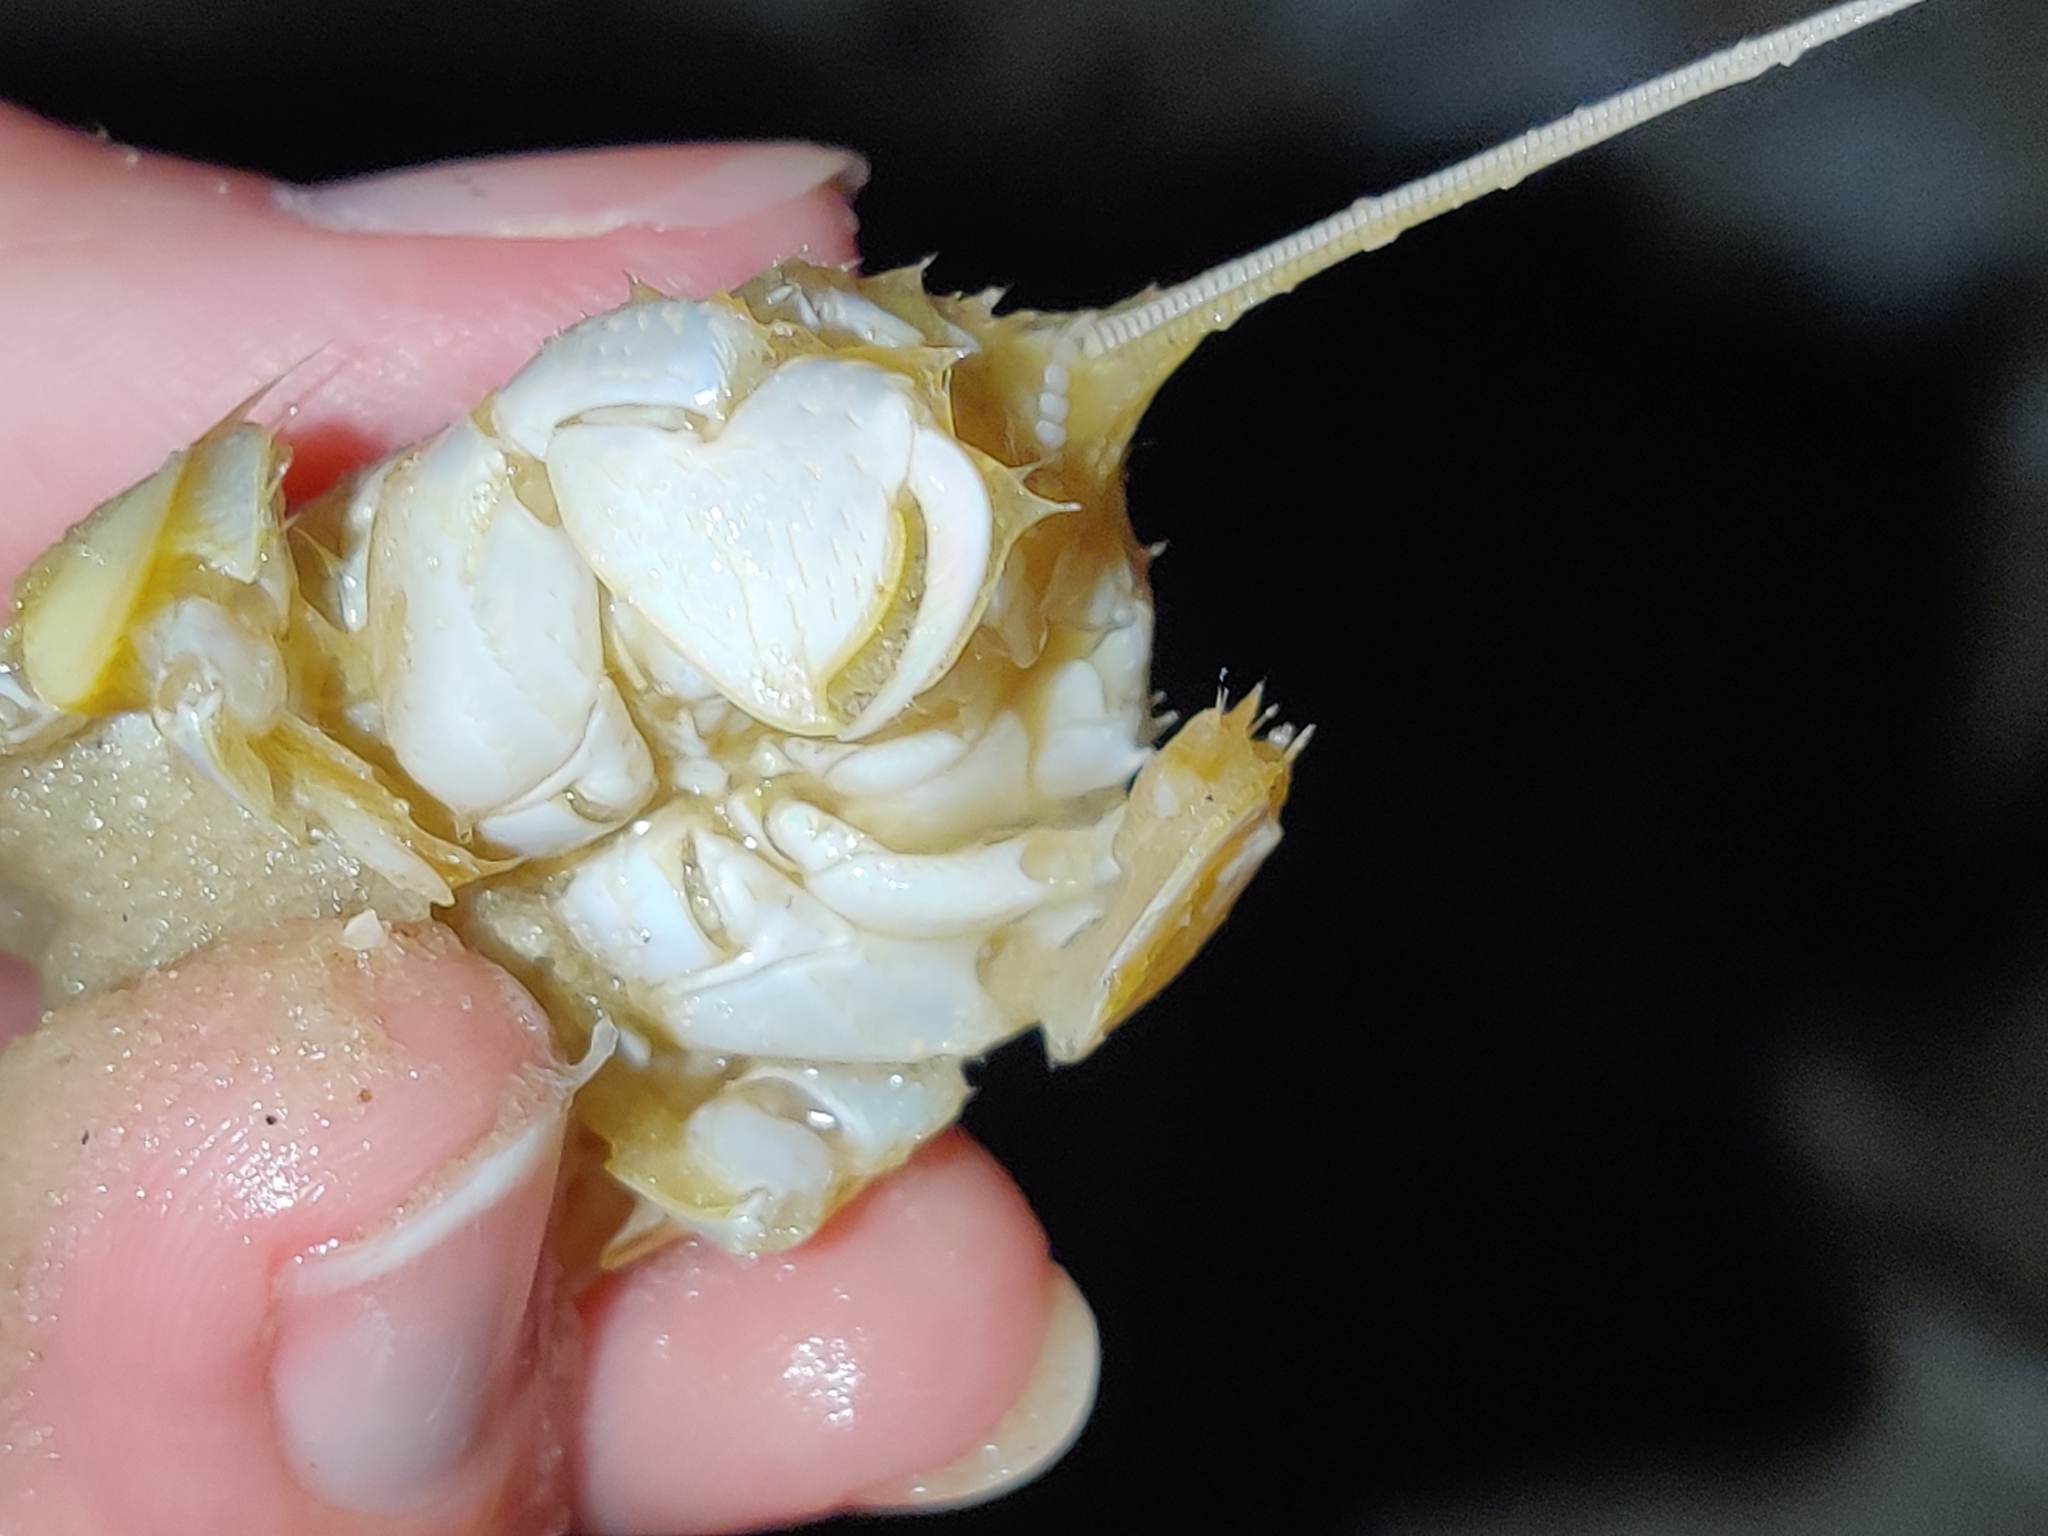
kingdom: Animalia
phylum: Arthropoda
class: Malacostraca
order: Decapoda
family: Albuneidae
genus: Lepidopa
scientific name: Lepidopa benedicti
